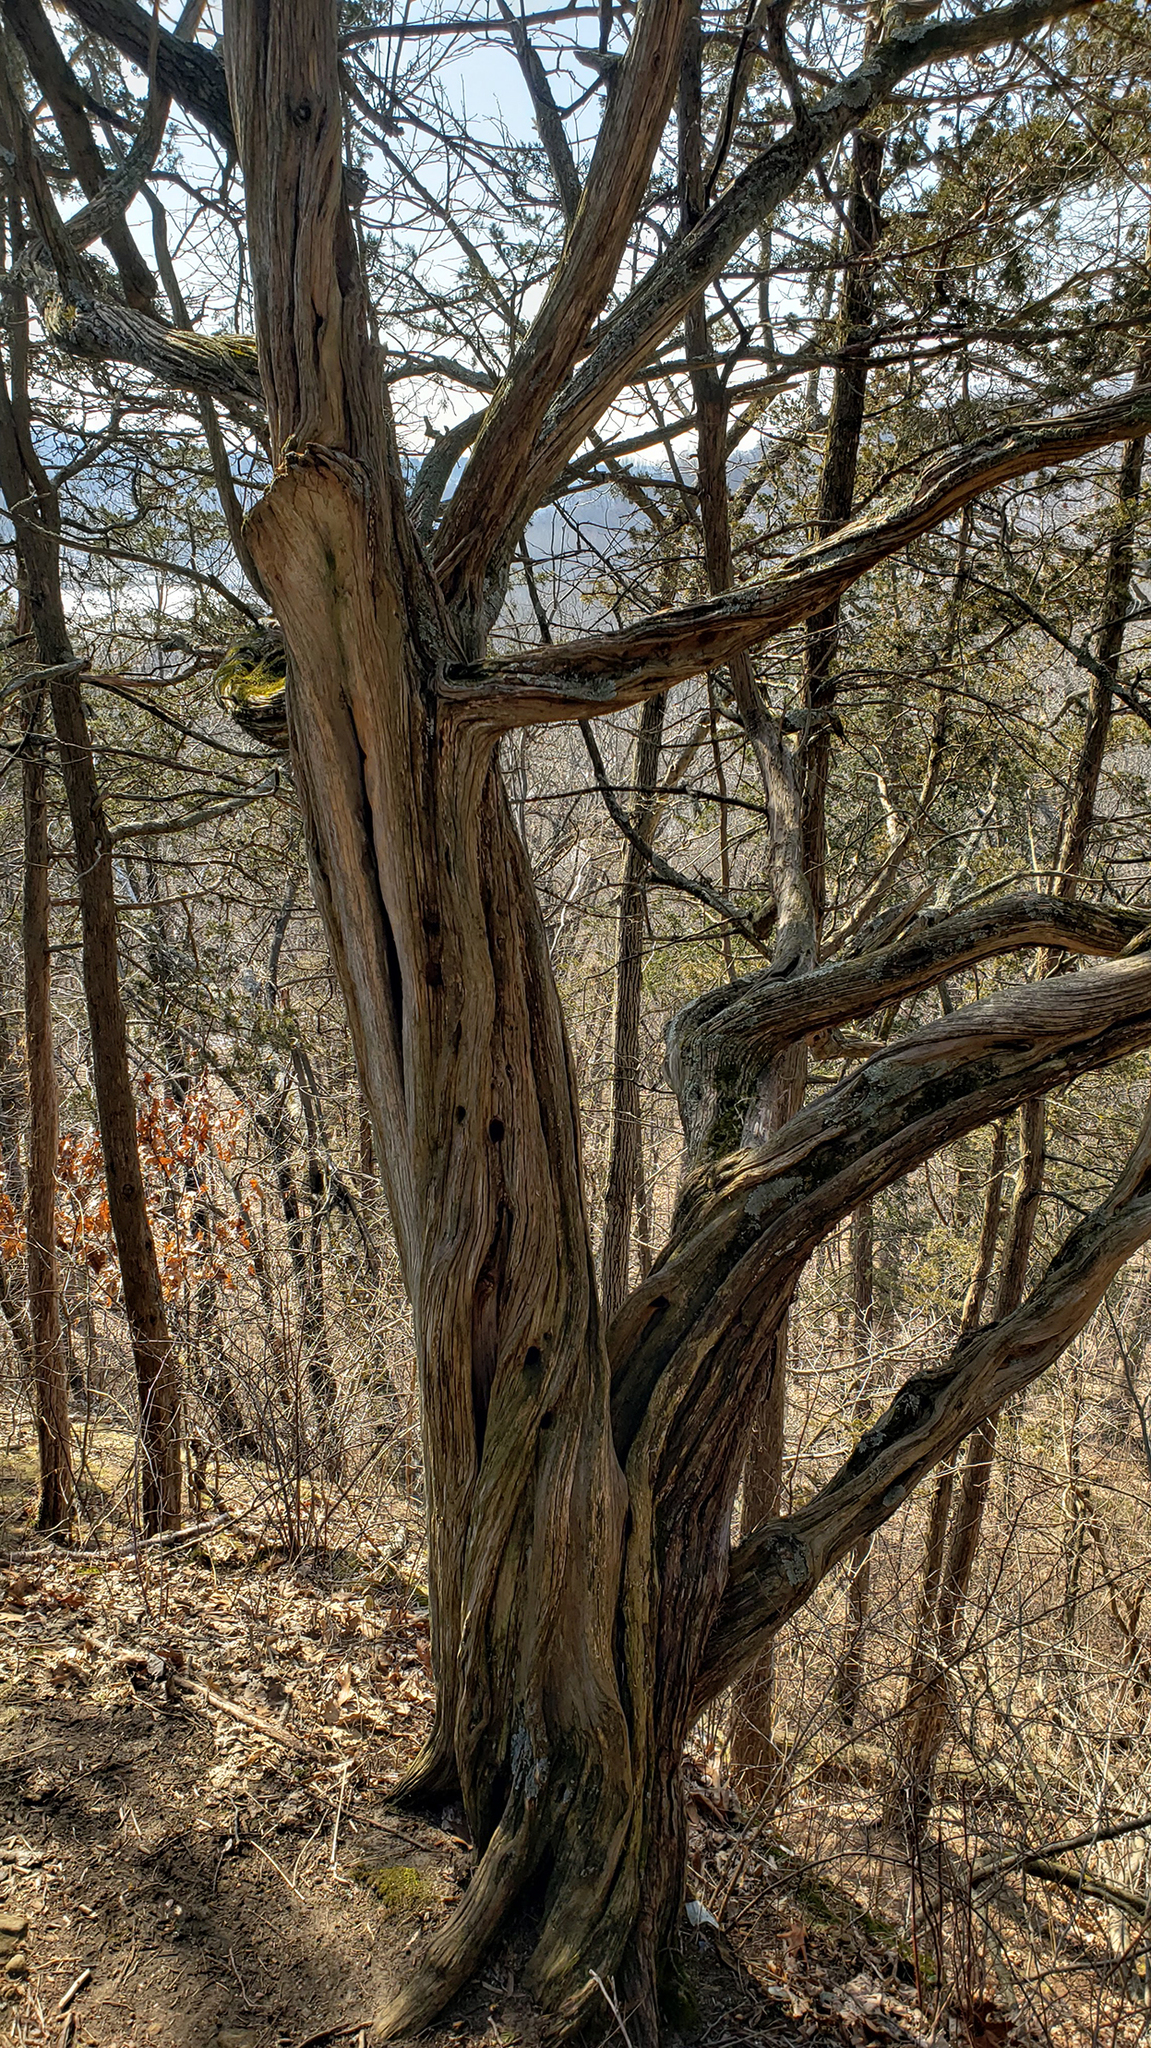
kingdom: Plantae
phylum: Tracheophyta
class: Pinopsida
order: Pinales
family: Cupressaceae
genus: Juniperus
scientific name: Juniperus virginiana
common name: Red juniper
